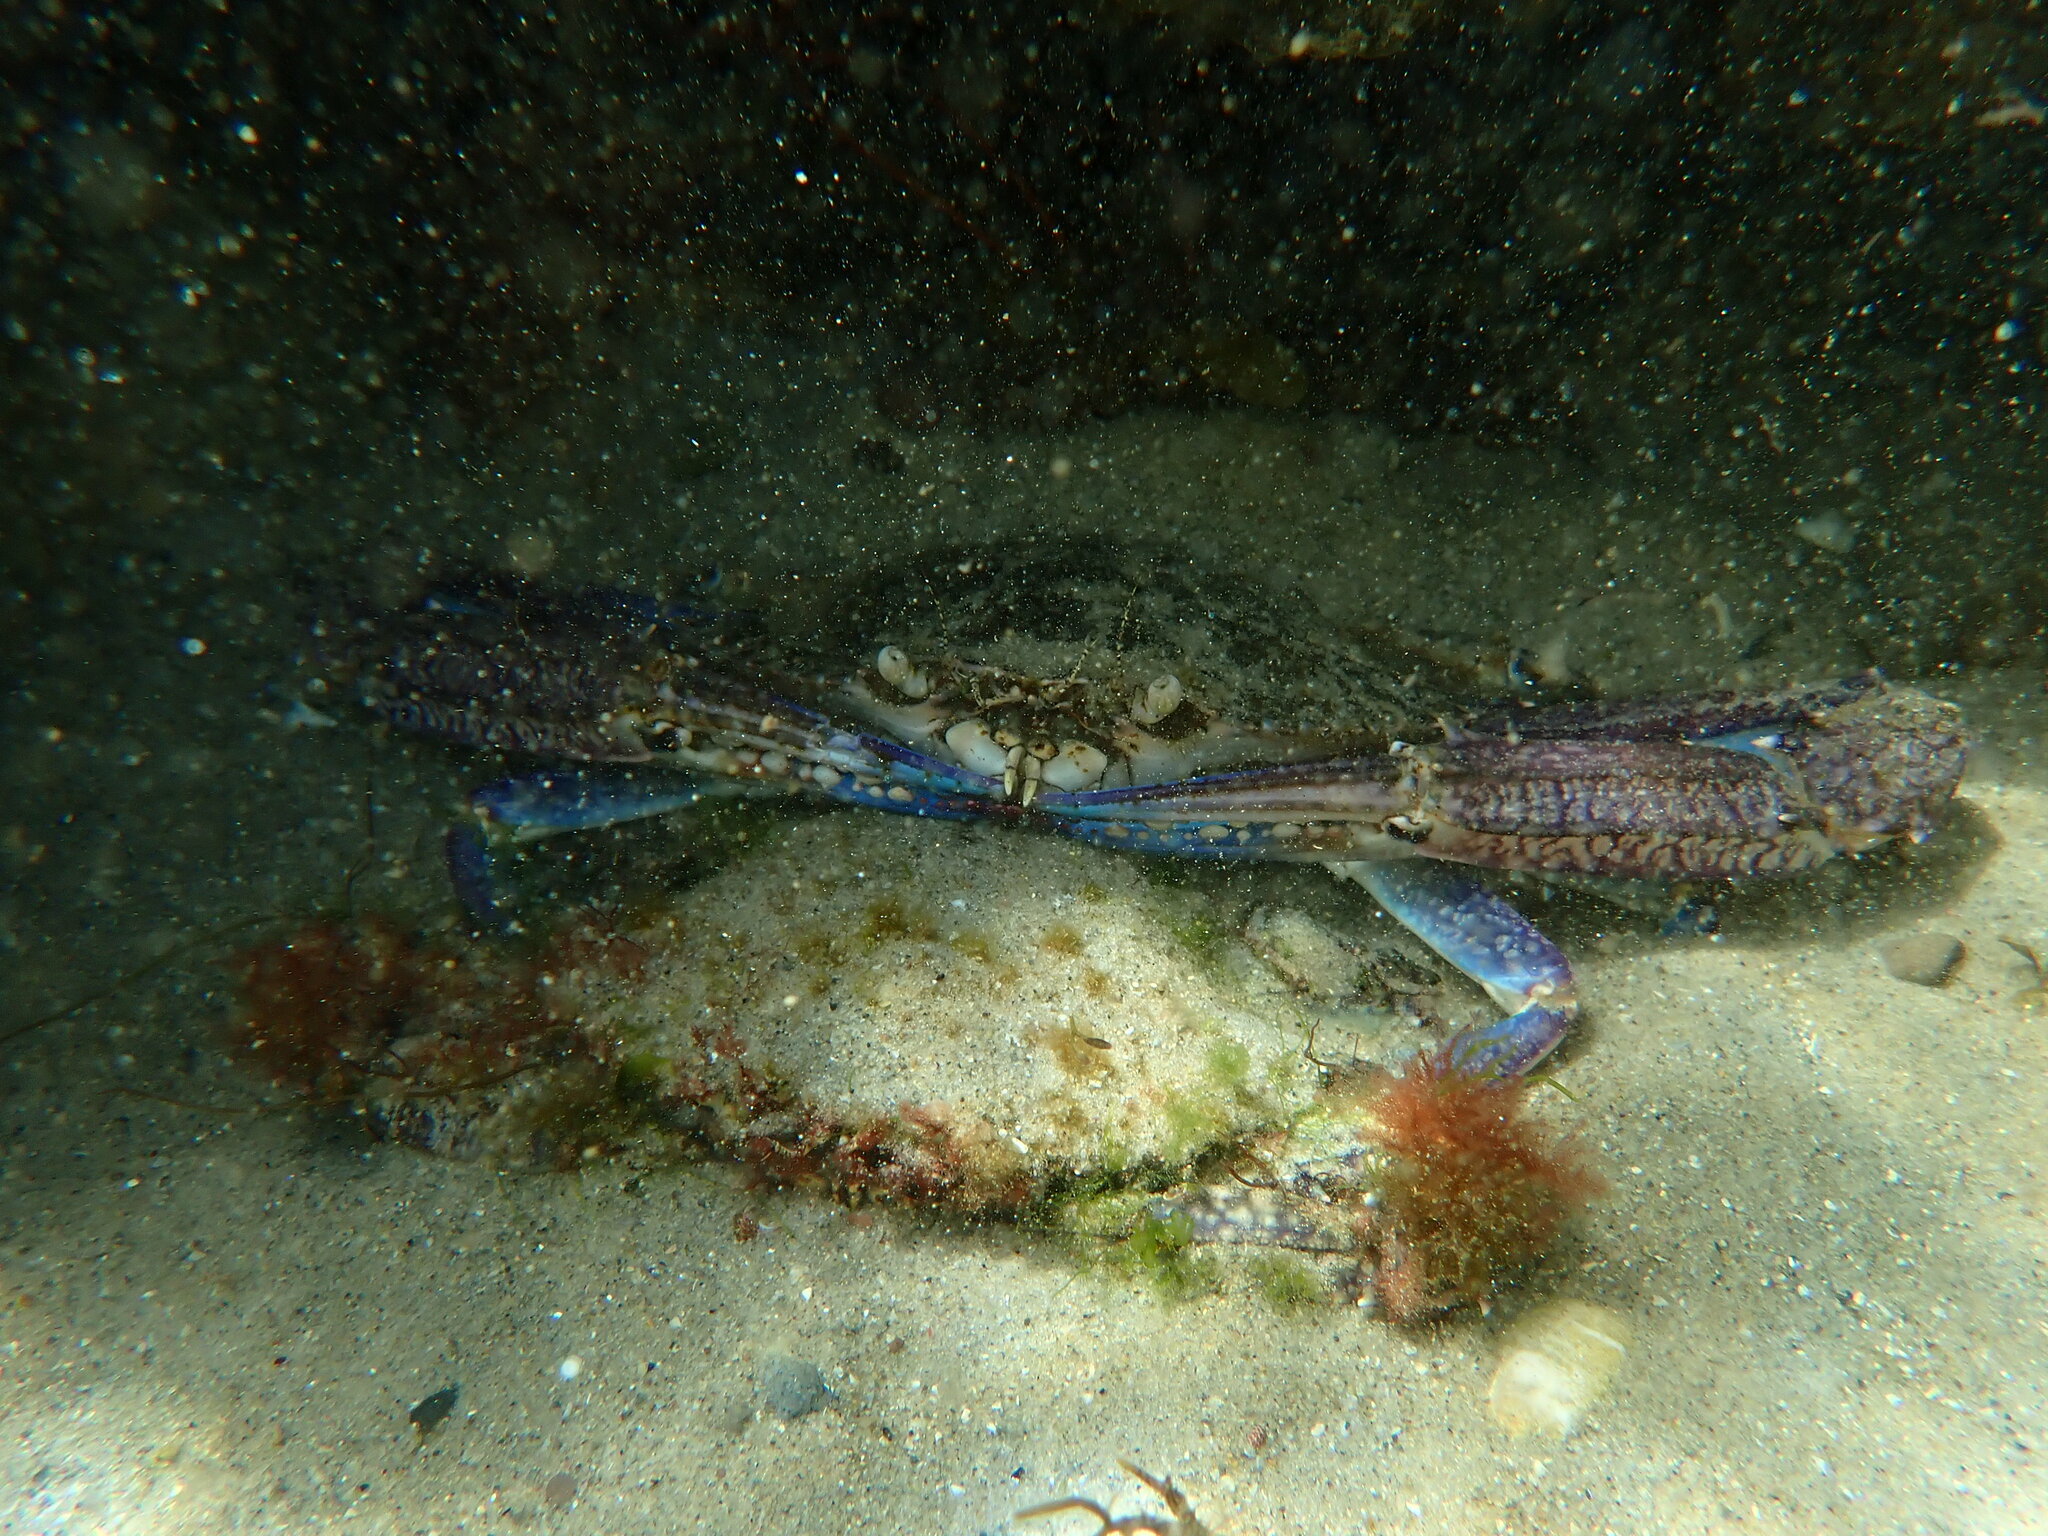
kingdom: Animalia
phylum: Arthropoda
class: Malacostraca
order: Decapoda
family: Portunidae
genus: Portunus
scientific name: Portunus armatus
